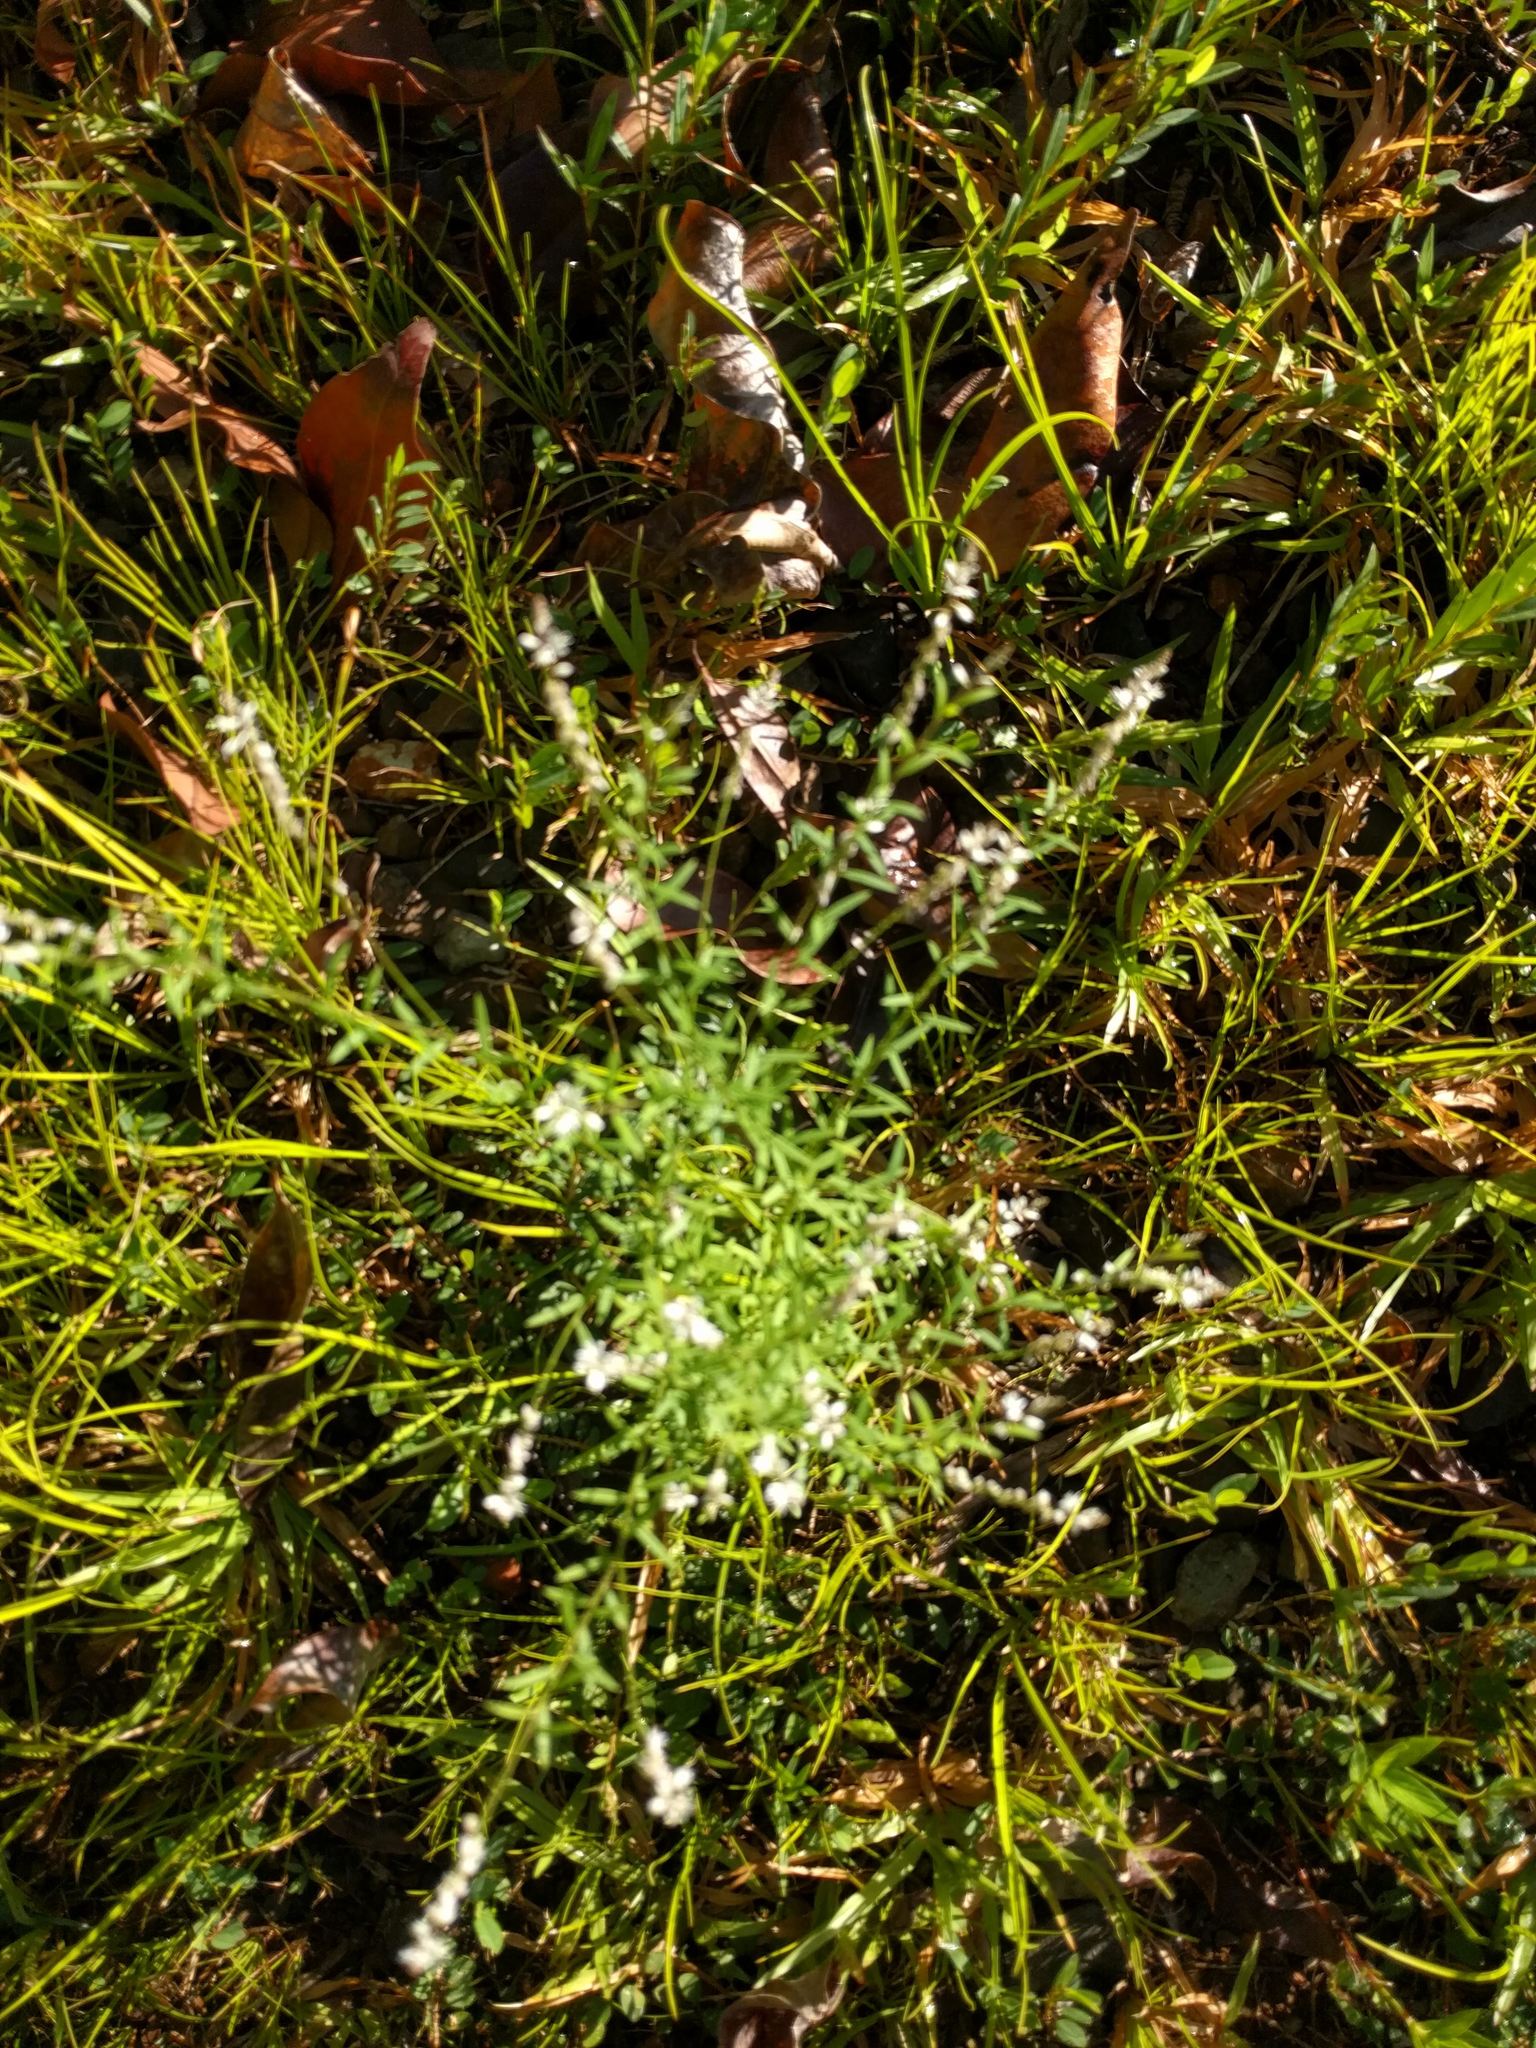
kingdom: Plantae
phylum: Tracheophyta
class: Magnoliopsida
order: Fabales
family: Polygalaceae
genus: Polygala
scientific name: Polygala paniculata
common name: Orosne
